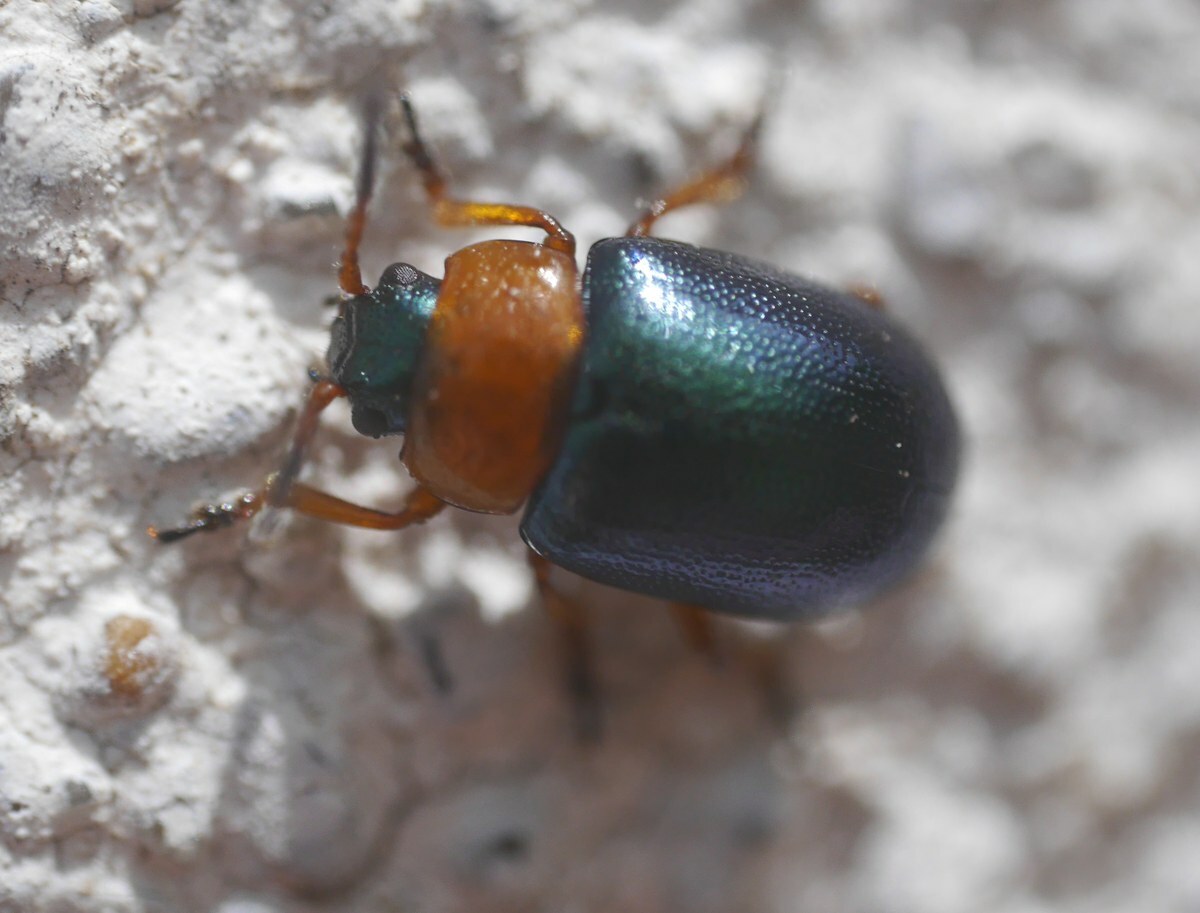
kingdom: Animalia
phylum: Arthropoda
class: Insecta
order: Coleoptera
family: Chrysomelidae
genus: Gastrophysa
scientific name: Gastrophysa polygoni
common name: Knotweed leaf beetle
